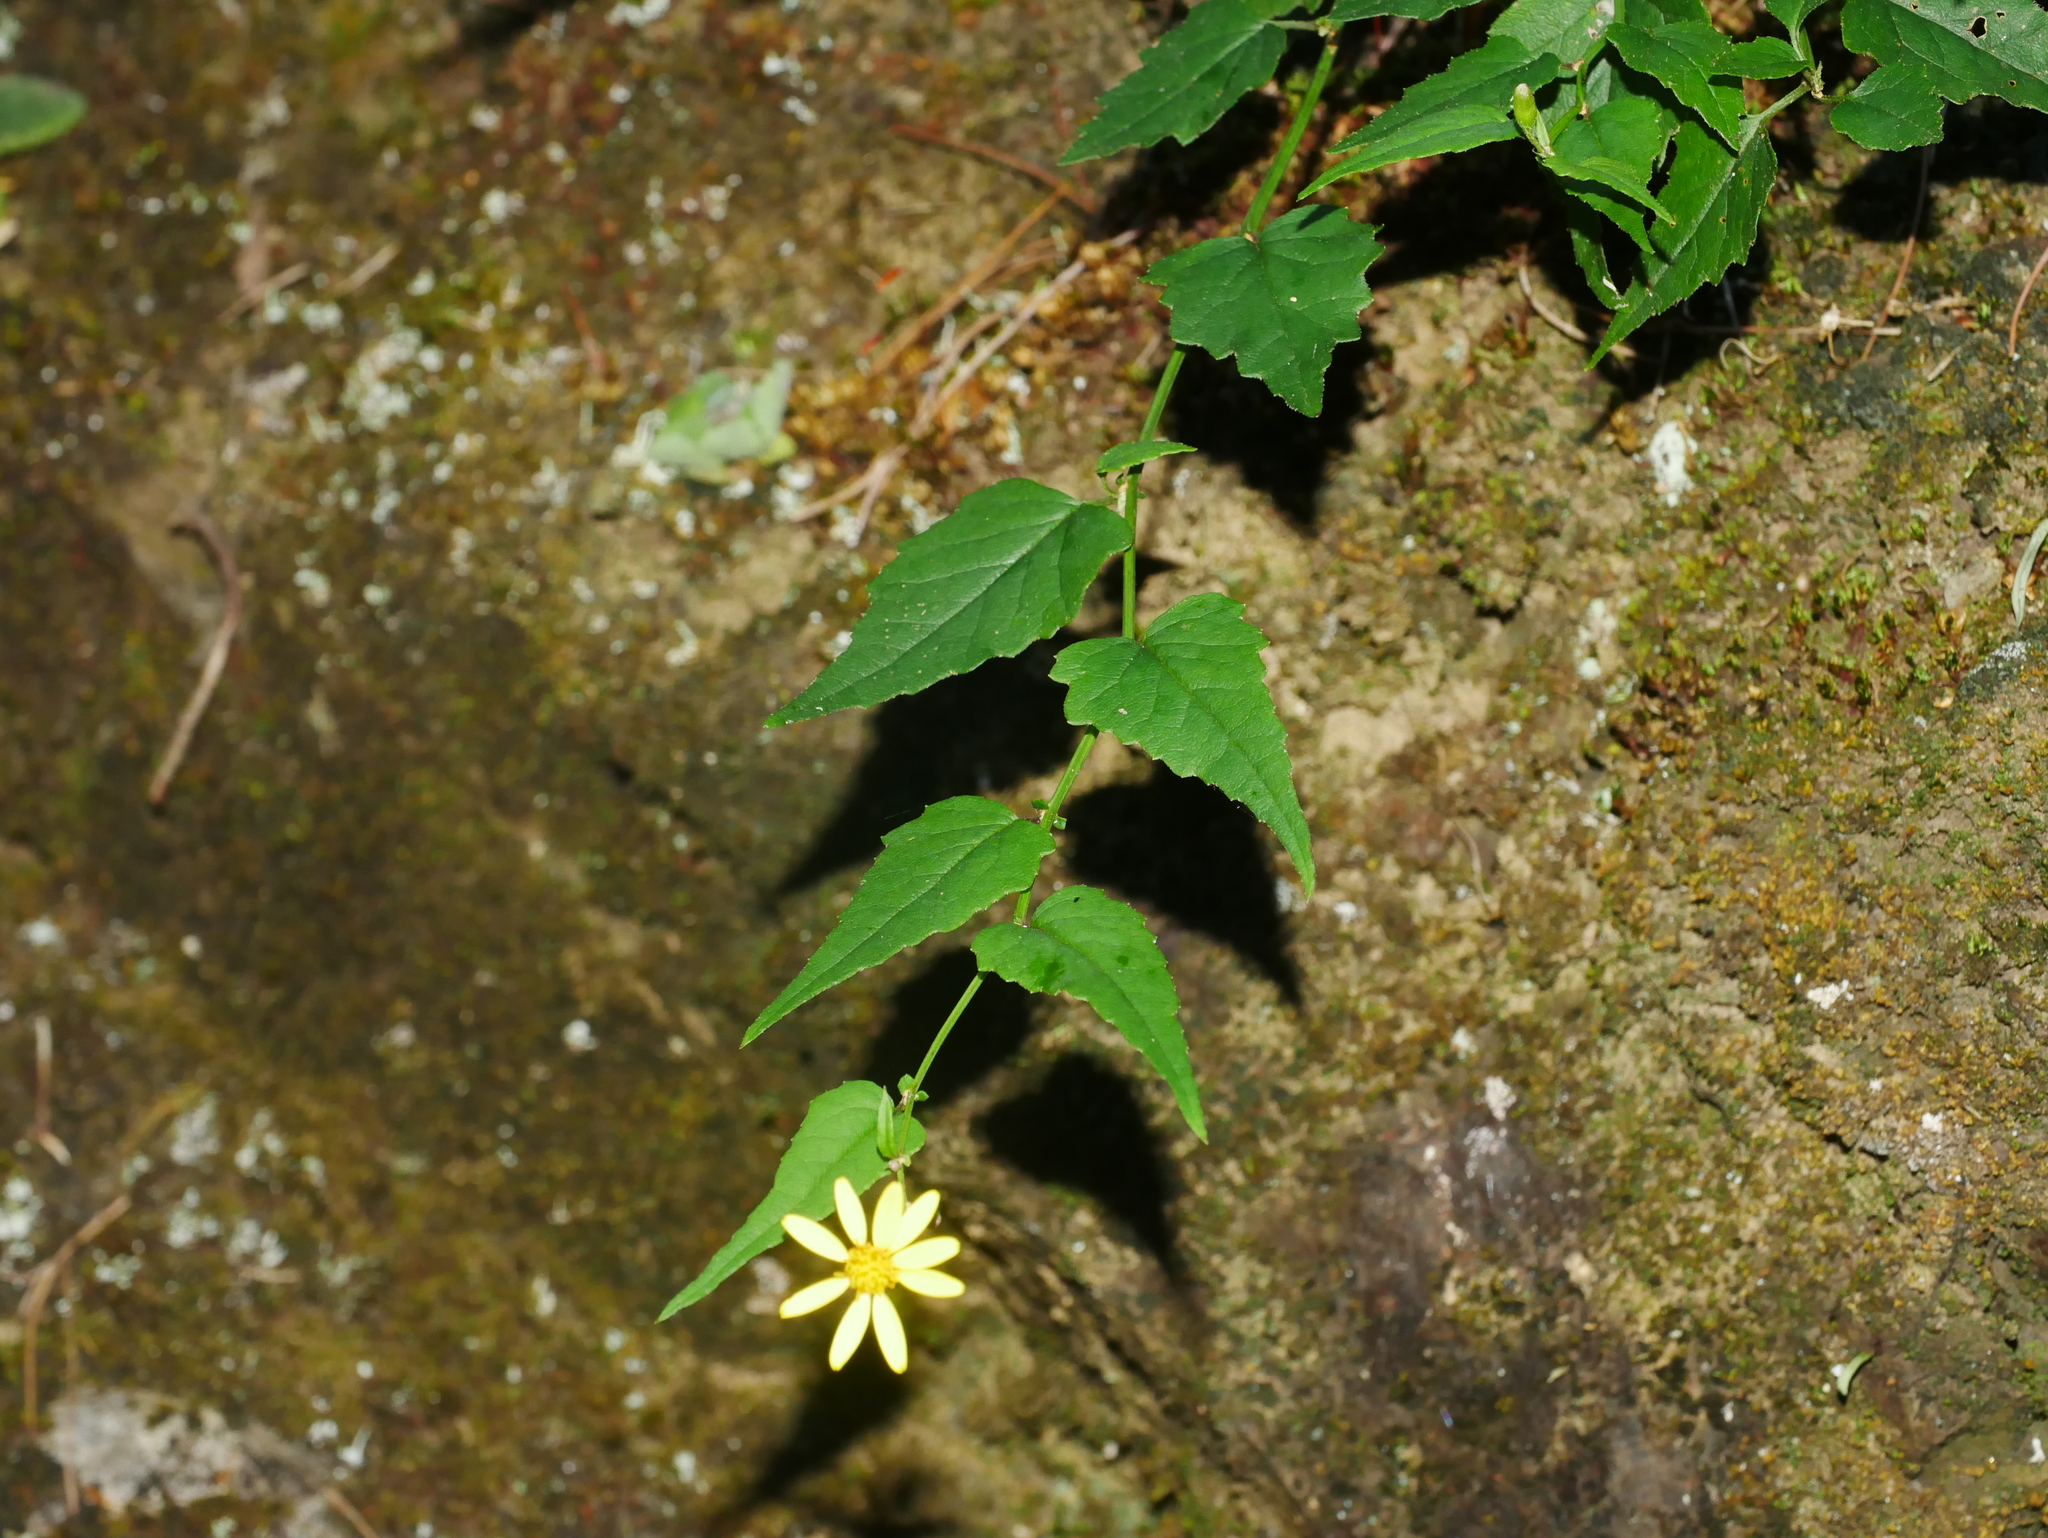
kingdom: Plantae
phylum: Tracheophyta
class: Magnoliopsida
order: Asterales
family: Asteraceae
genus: Senecio
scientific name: Senecio scandens
